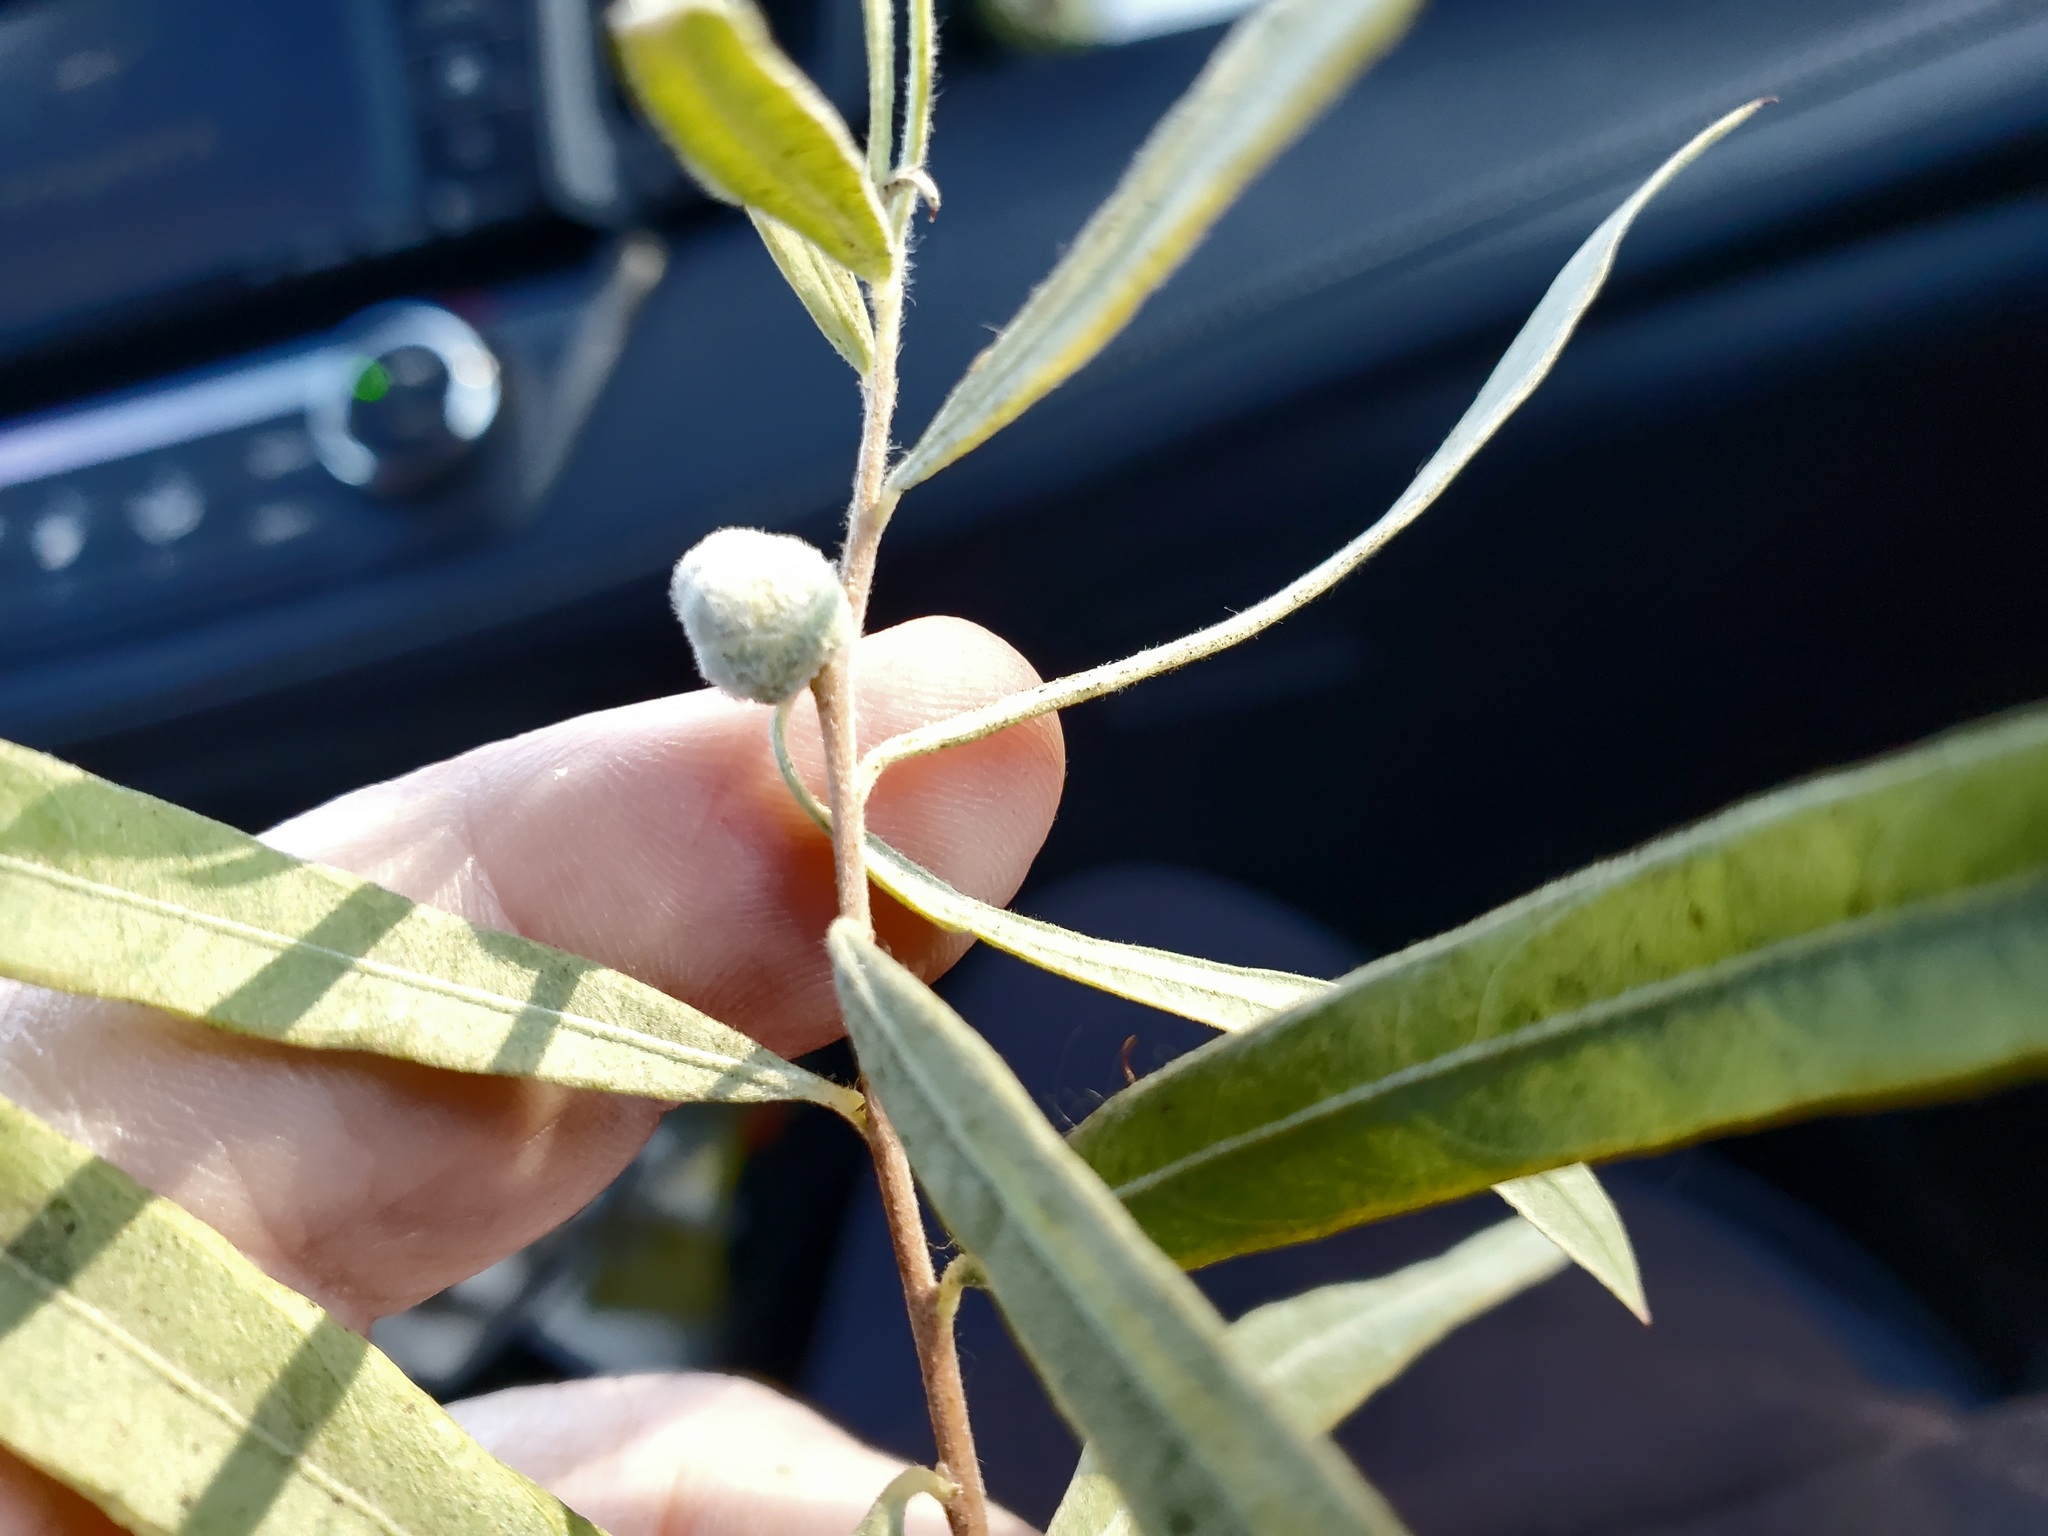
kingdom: Animalia
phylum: Arthropoda
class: Insecta
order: Diptera
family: Cecidomyiidae
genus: Rabdophaga
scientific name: Rabdophaga strobiloides
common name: Willow pinecone gall midge
